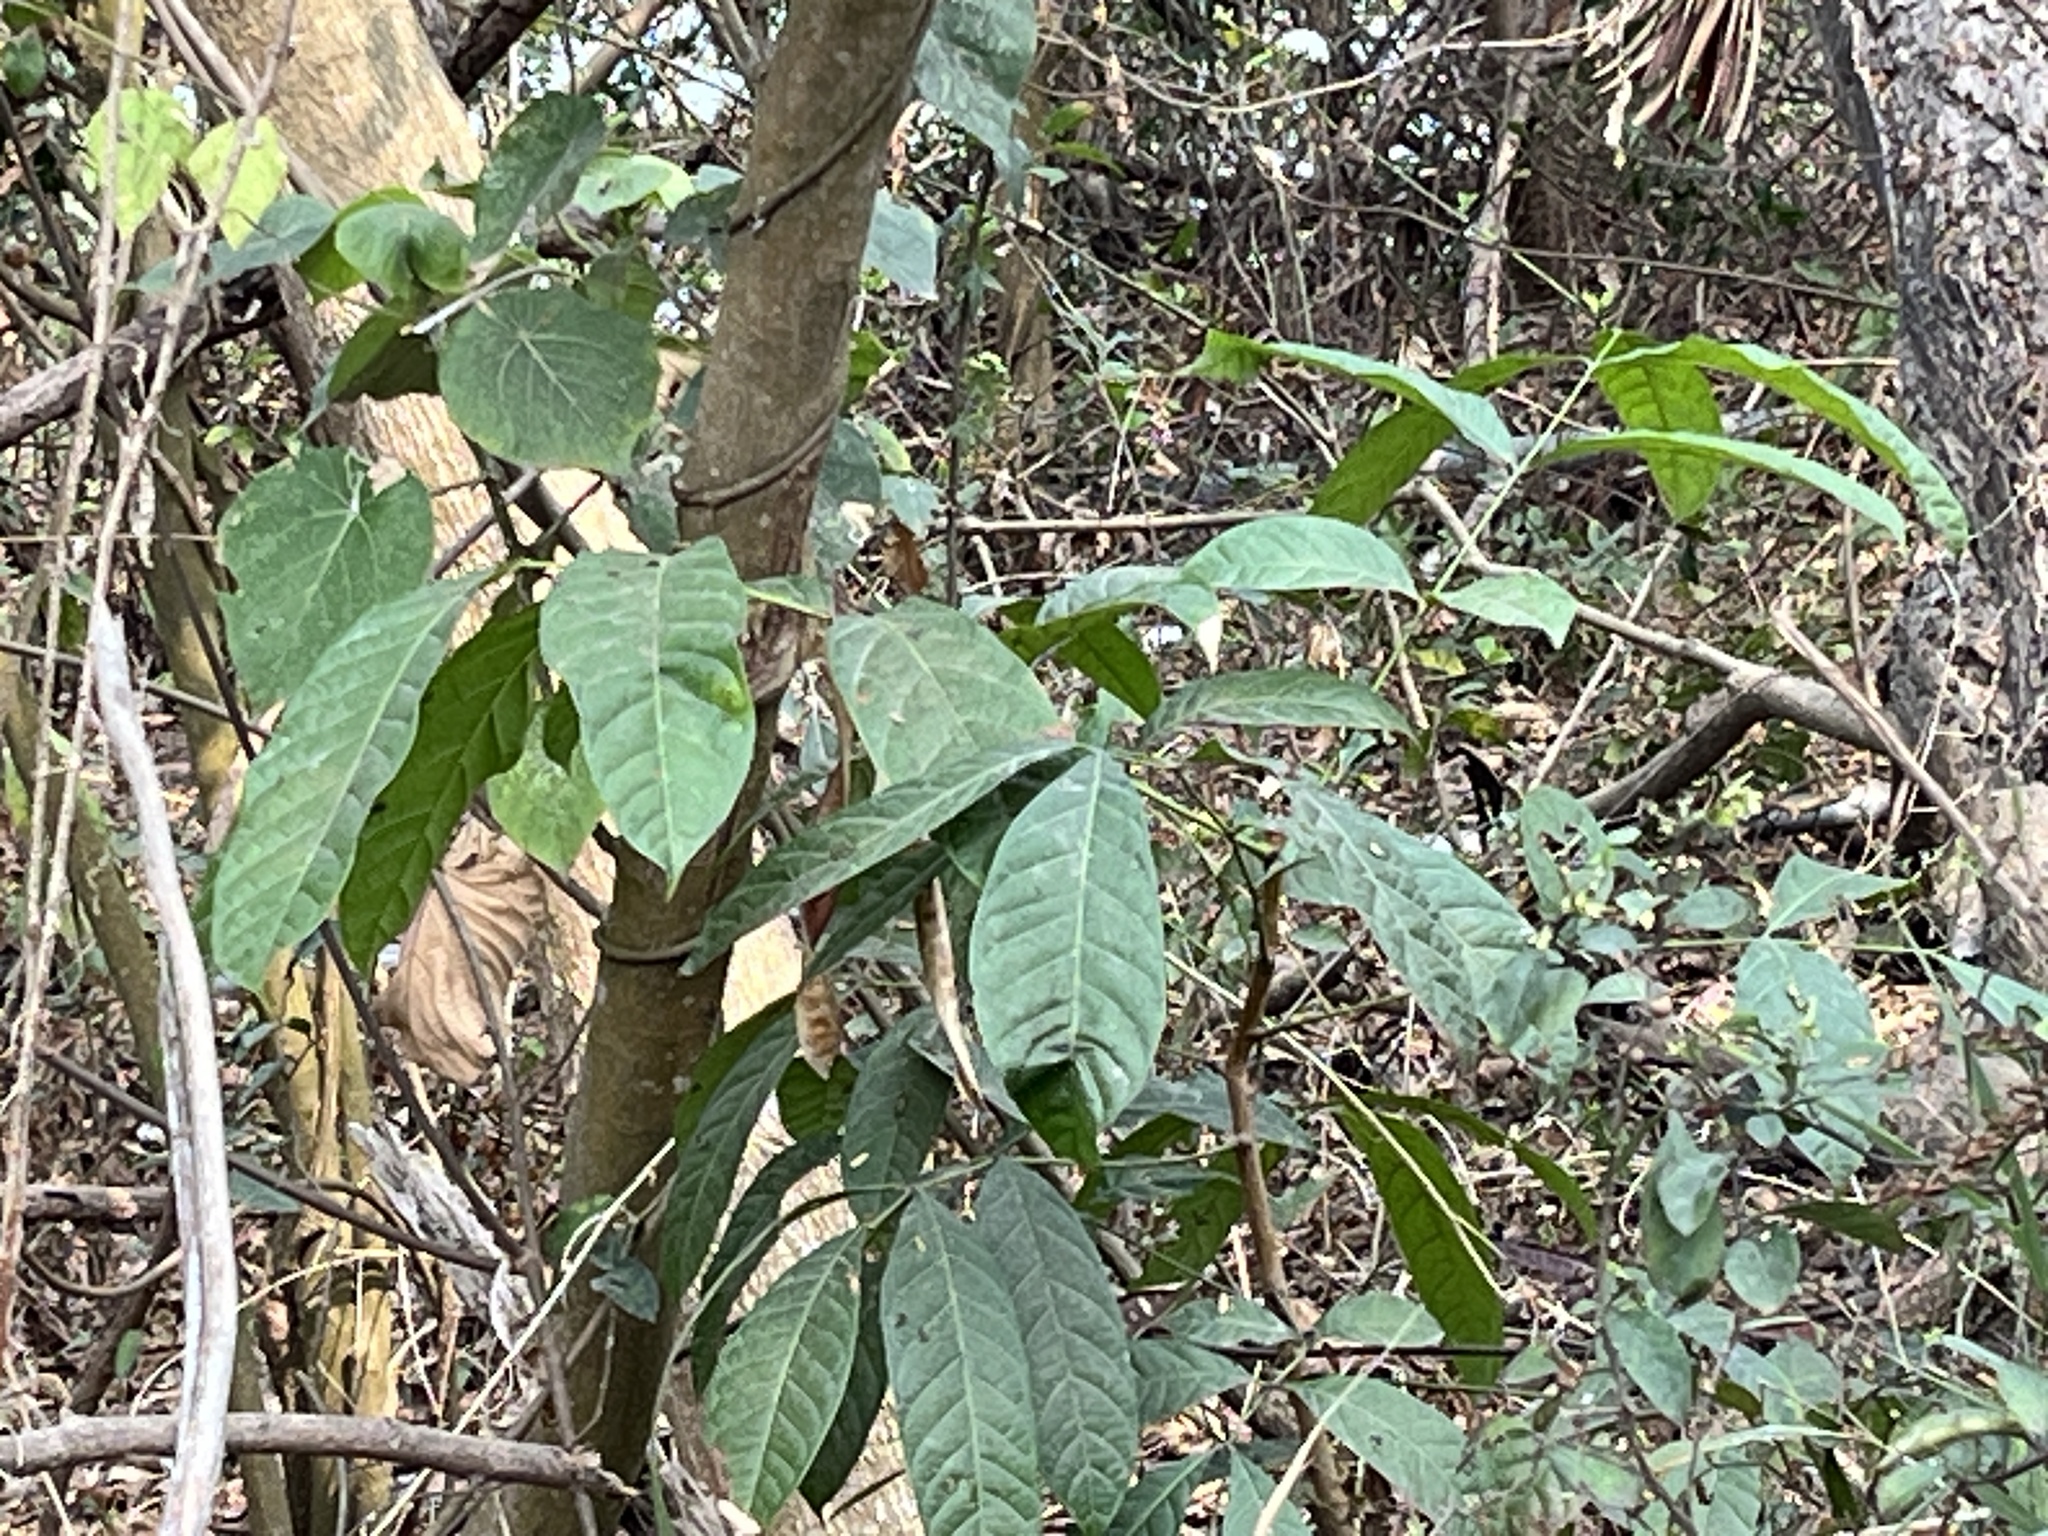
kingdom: Plantae
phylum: Tracheophyta
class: Magnoliopsida
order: Sapindales
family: Meliaceae
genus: Swietenia
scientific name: Swietenia macrophylla
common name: Honduras mahogany
